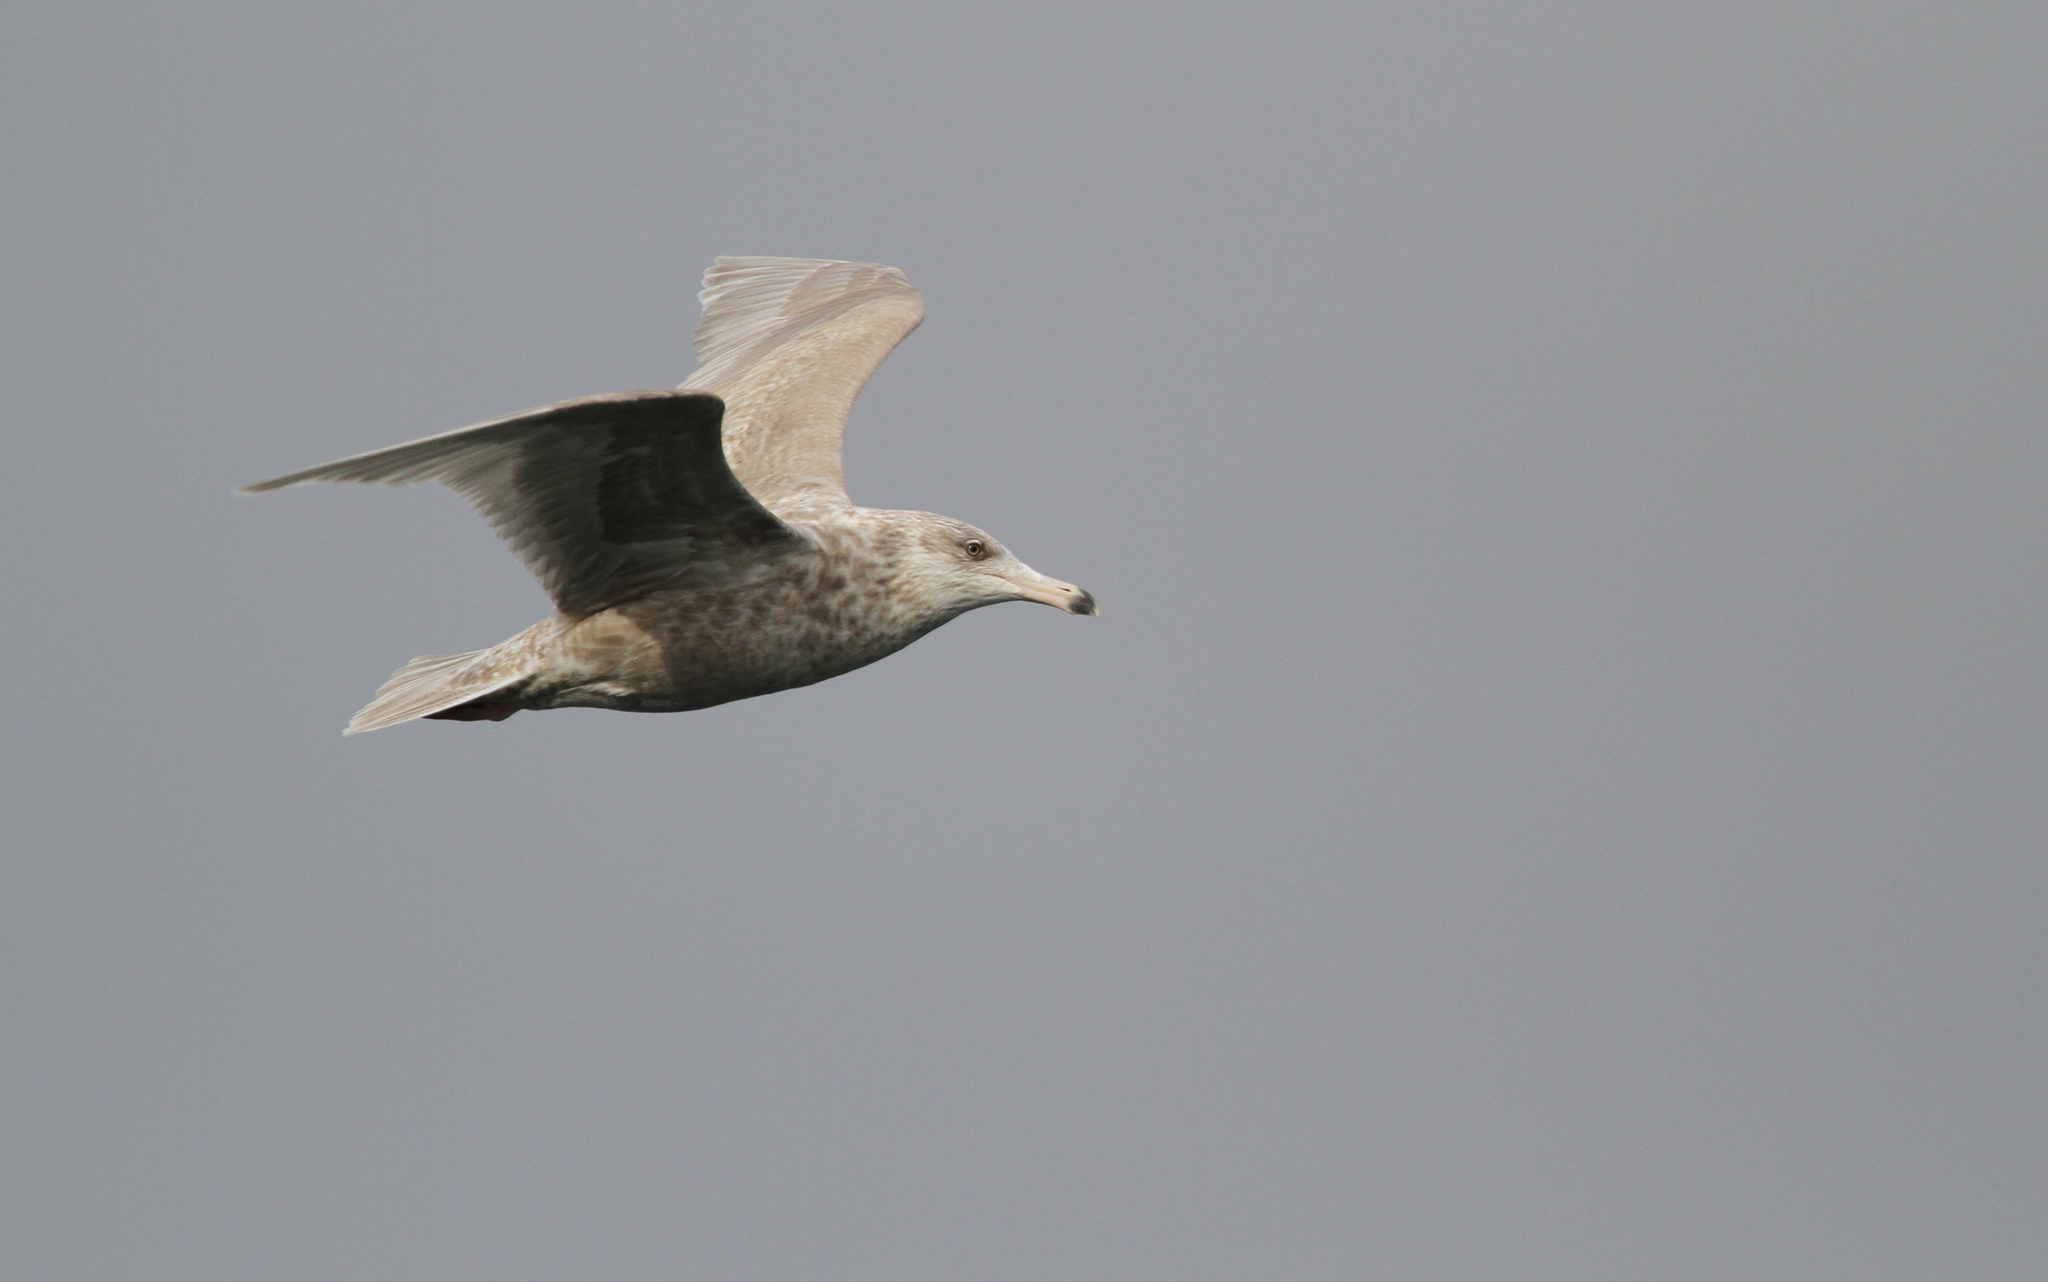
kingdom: Animalia
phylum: Chordata
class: Aves
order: Charadriiformes
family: Laridae
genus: Larus
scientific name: Larus hyperboreus
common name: Glaucous gull
